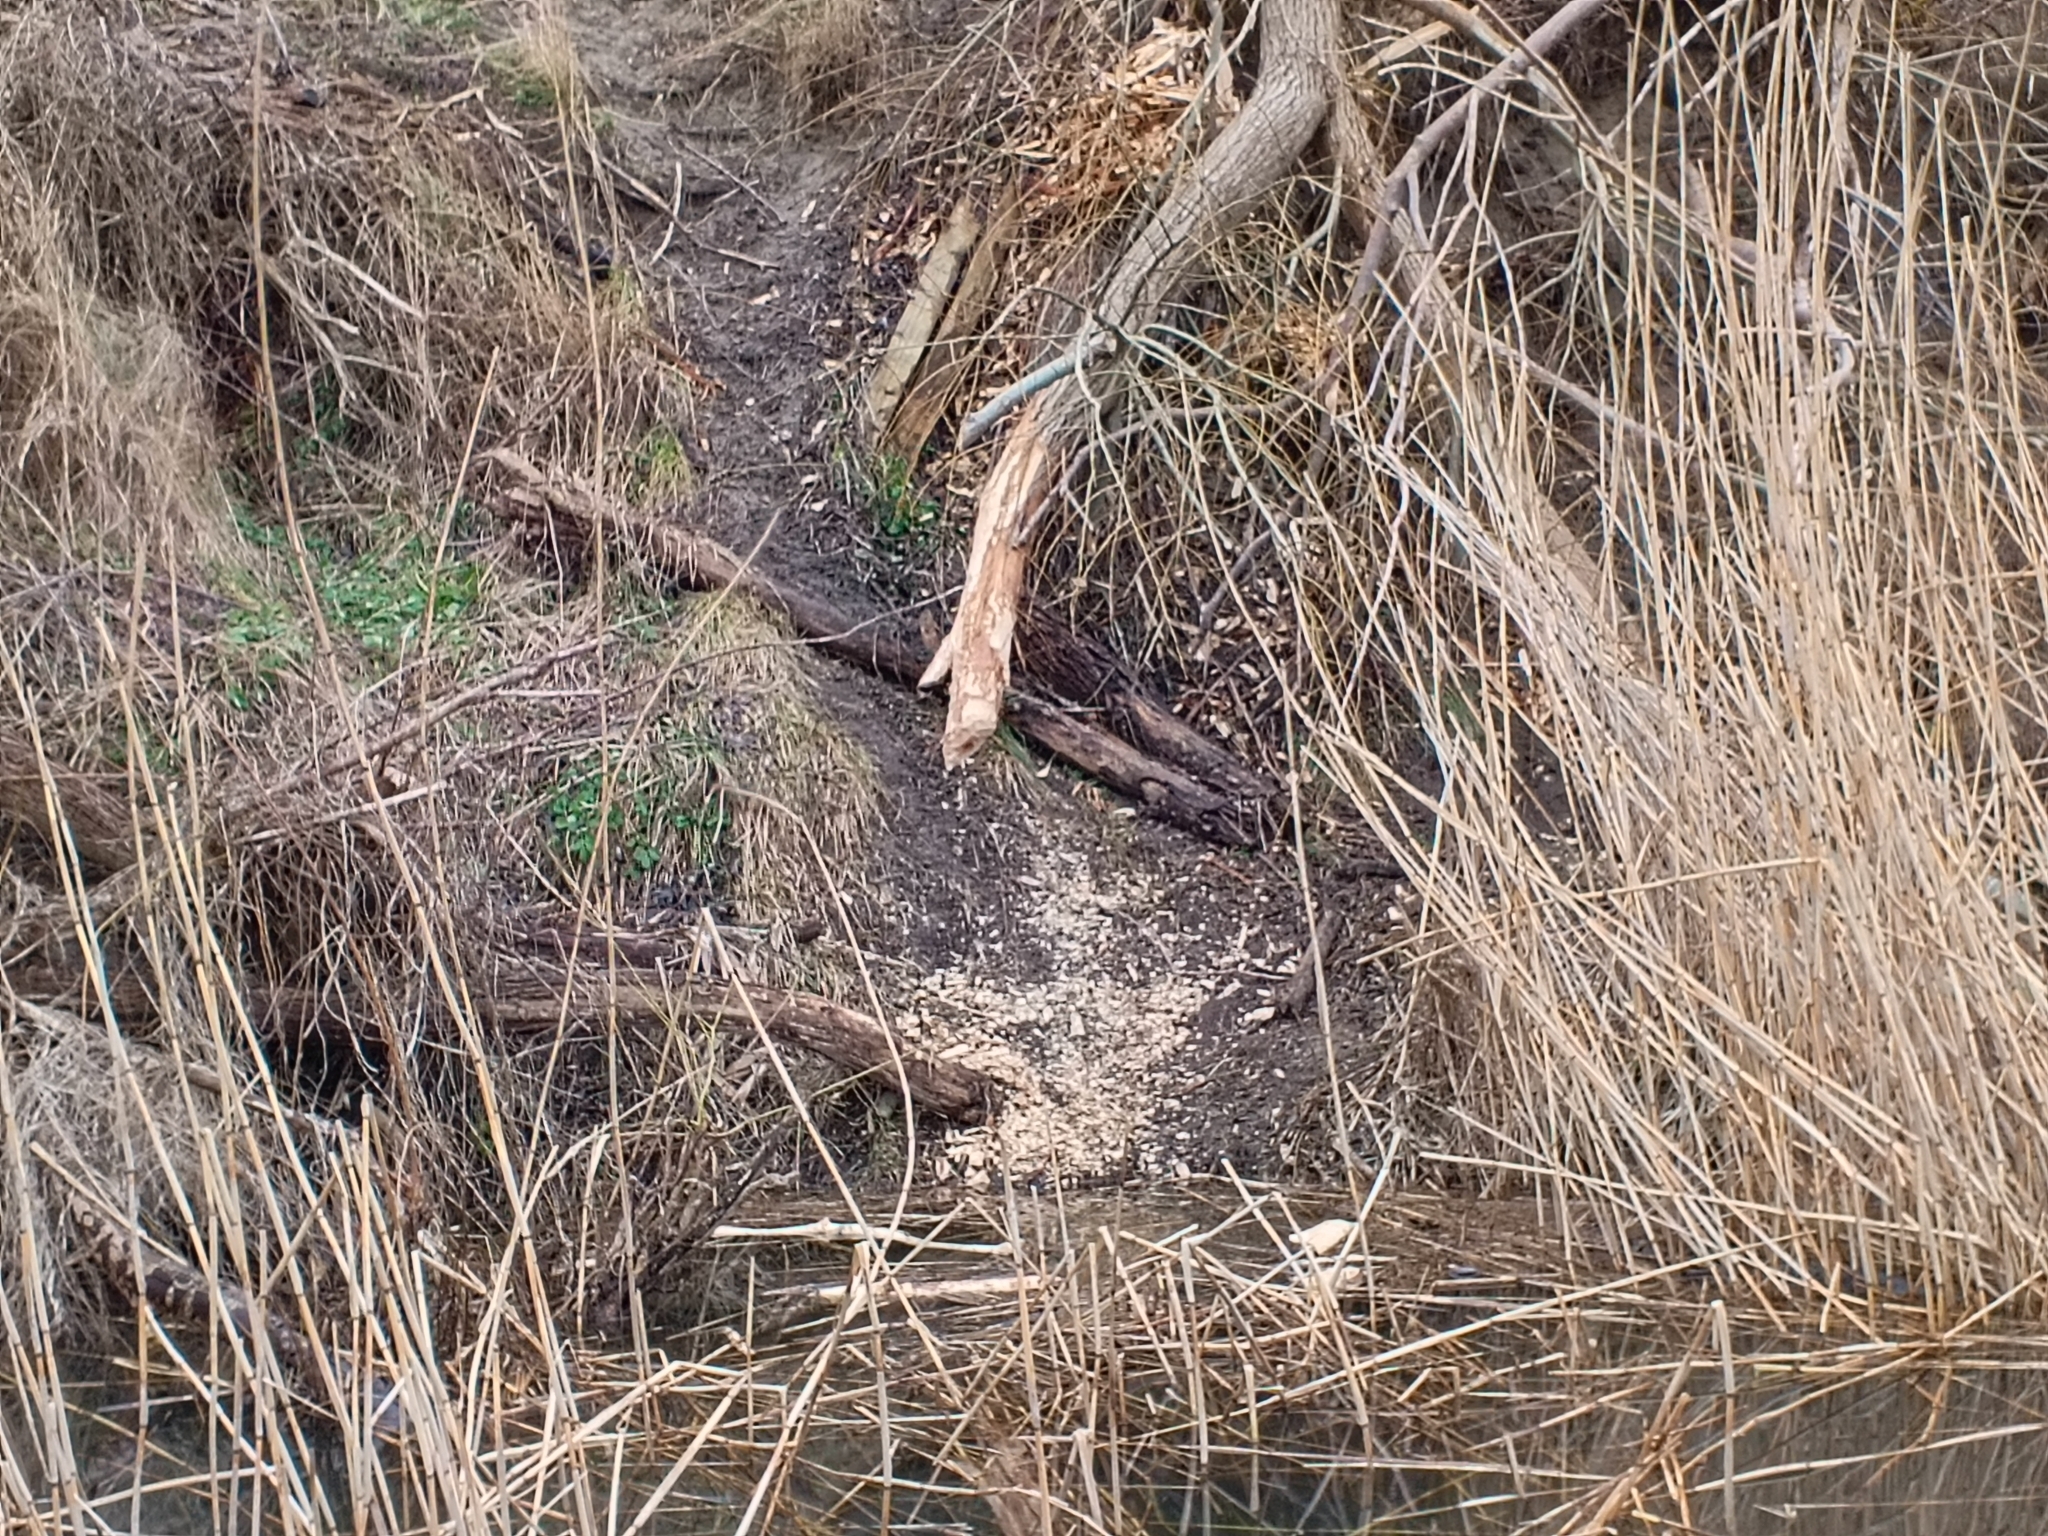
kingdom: Animalia
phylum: Chordata
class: Mammalia
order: Rodentia
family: Castoridae
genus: Castor
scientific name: Castor fiber
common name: Eurasian beaver
